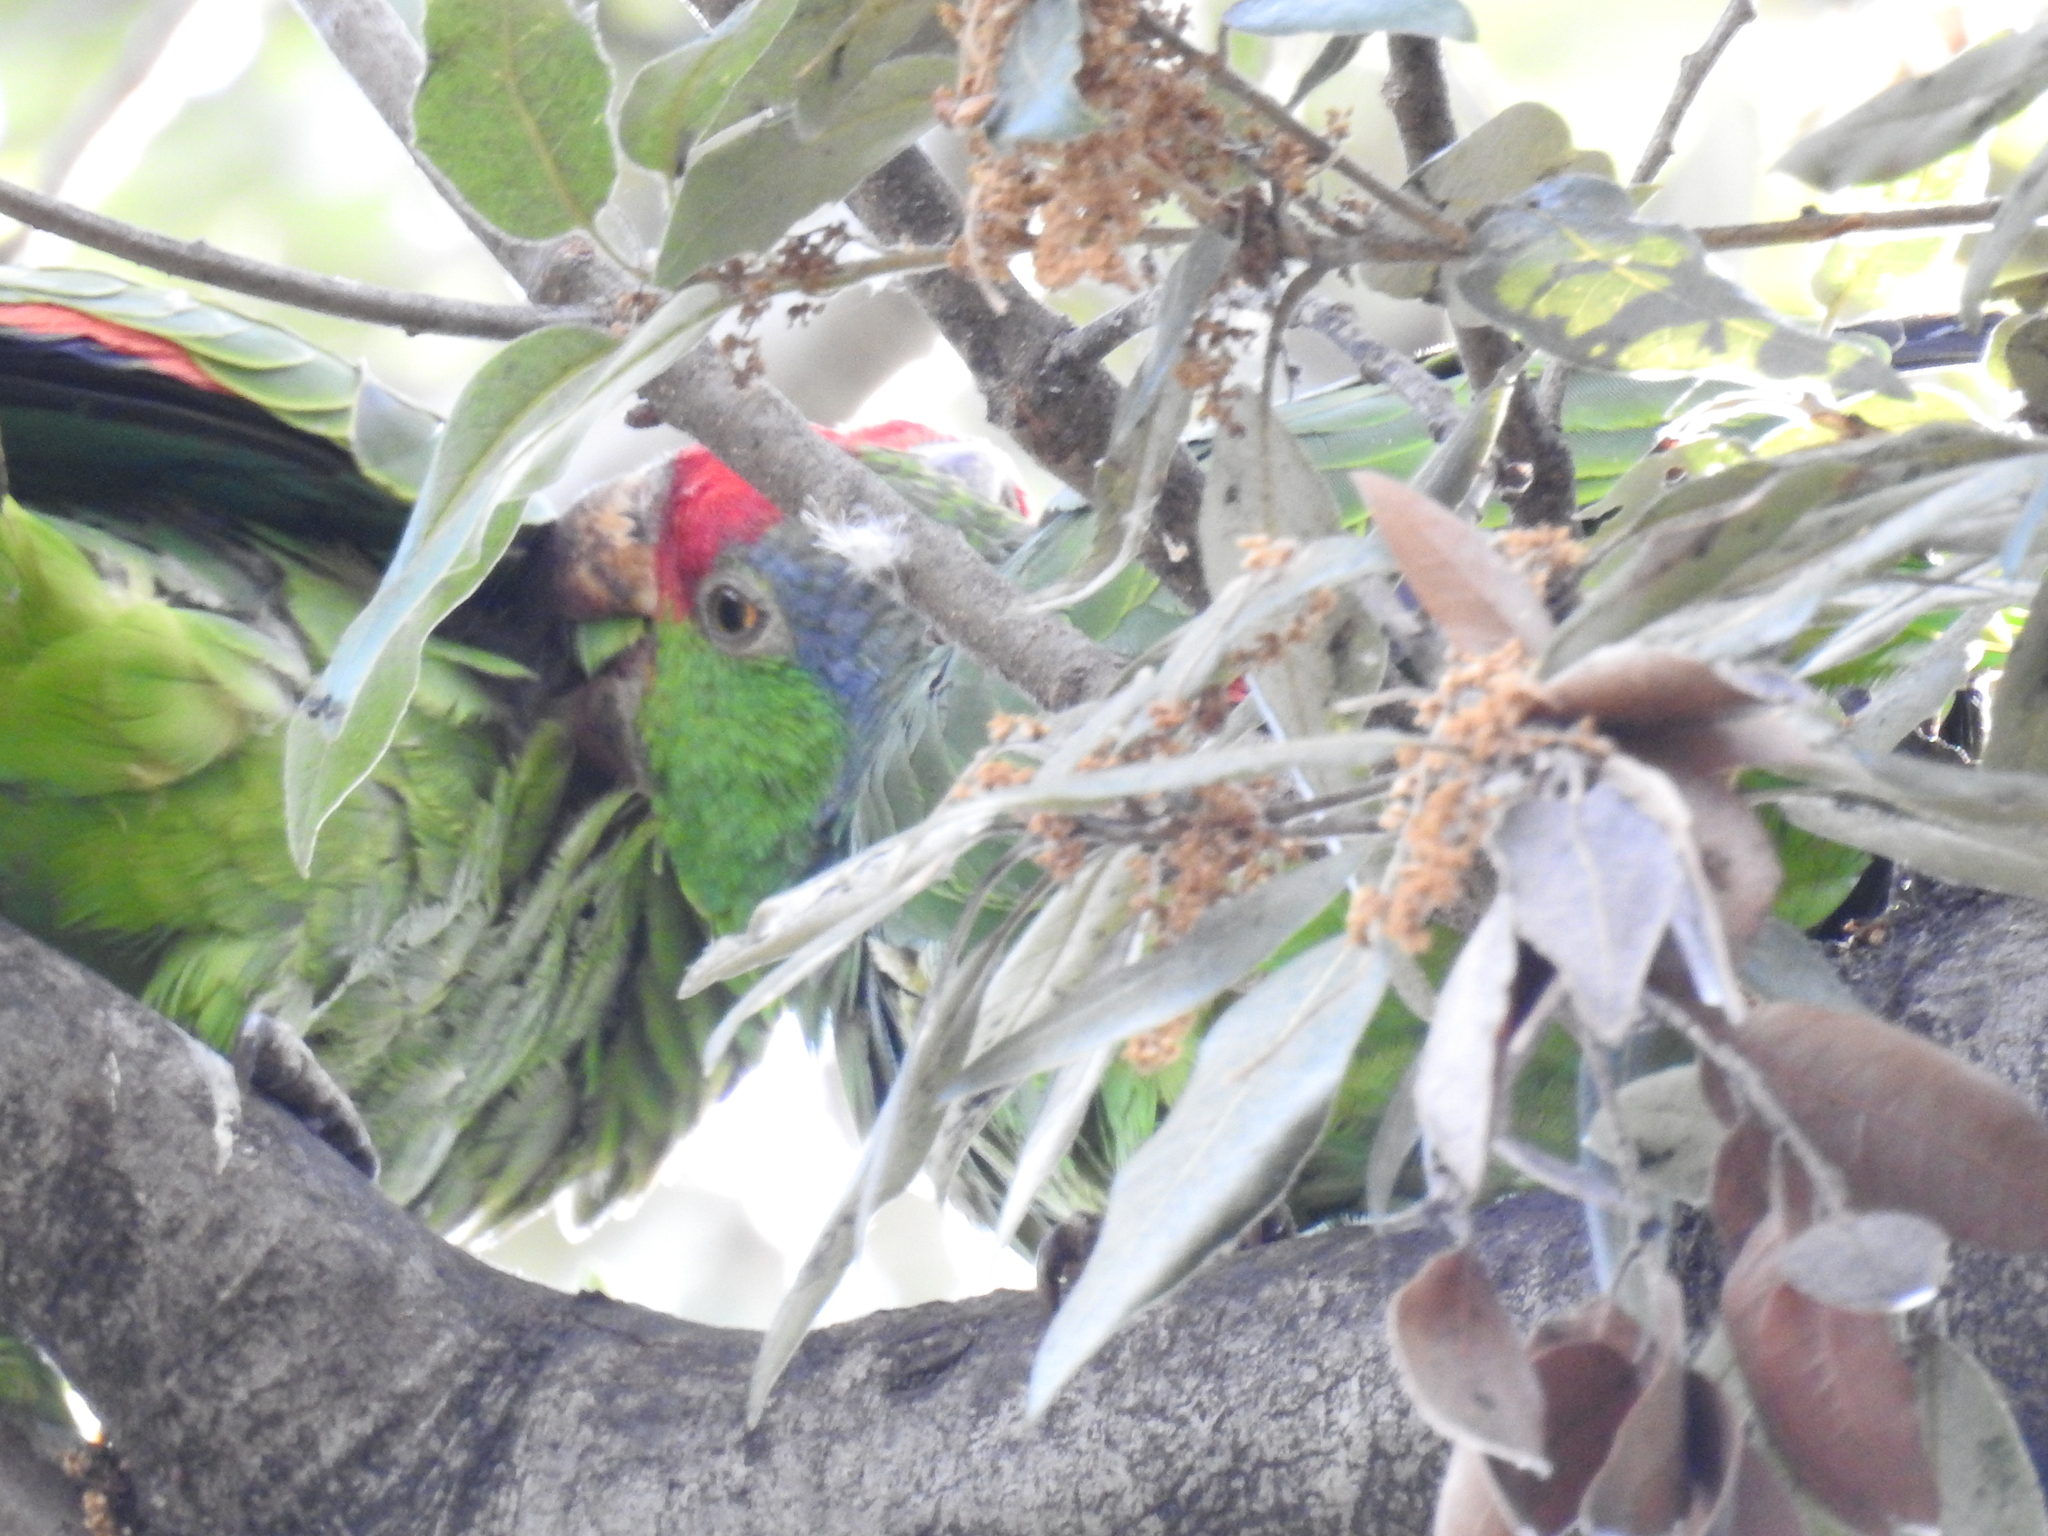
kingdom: Animalia
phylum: Chordata
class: Aves
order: Psittaciformes
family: Psittacidae
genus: Amazona
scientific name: Amazona viridigenalis
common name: Red-crowned amazon
